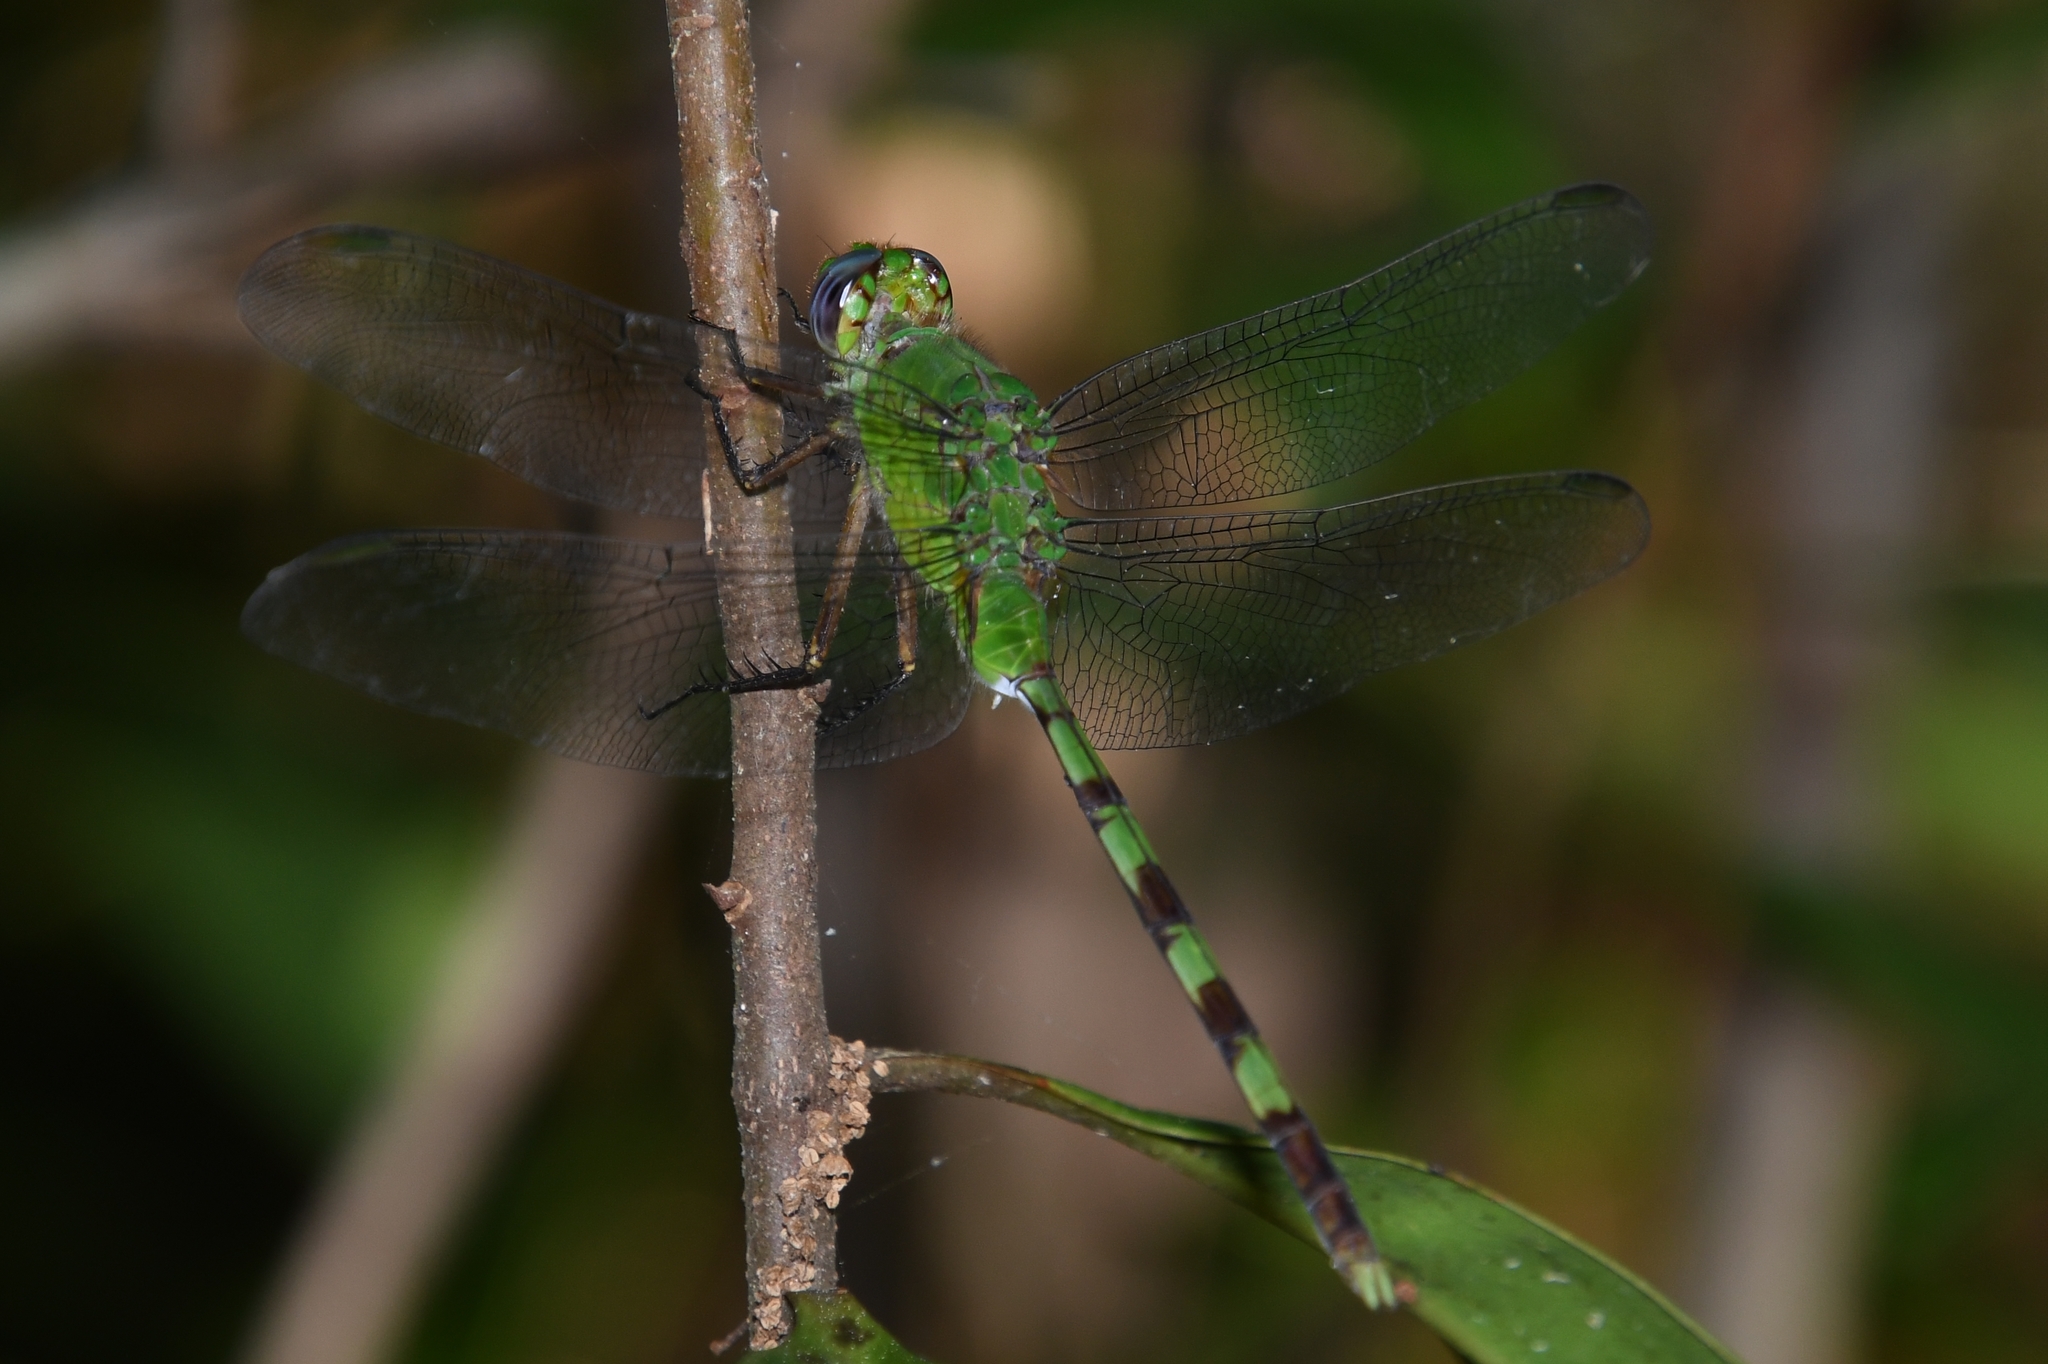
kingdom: Animalia
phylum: Arthropoda
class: Insecta
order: Odonata
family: Libellulidae
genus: Erythemis
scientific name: Erythemis vesiculosa
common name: Great pondhawk
